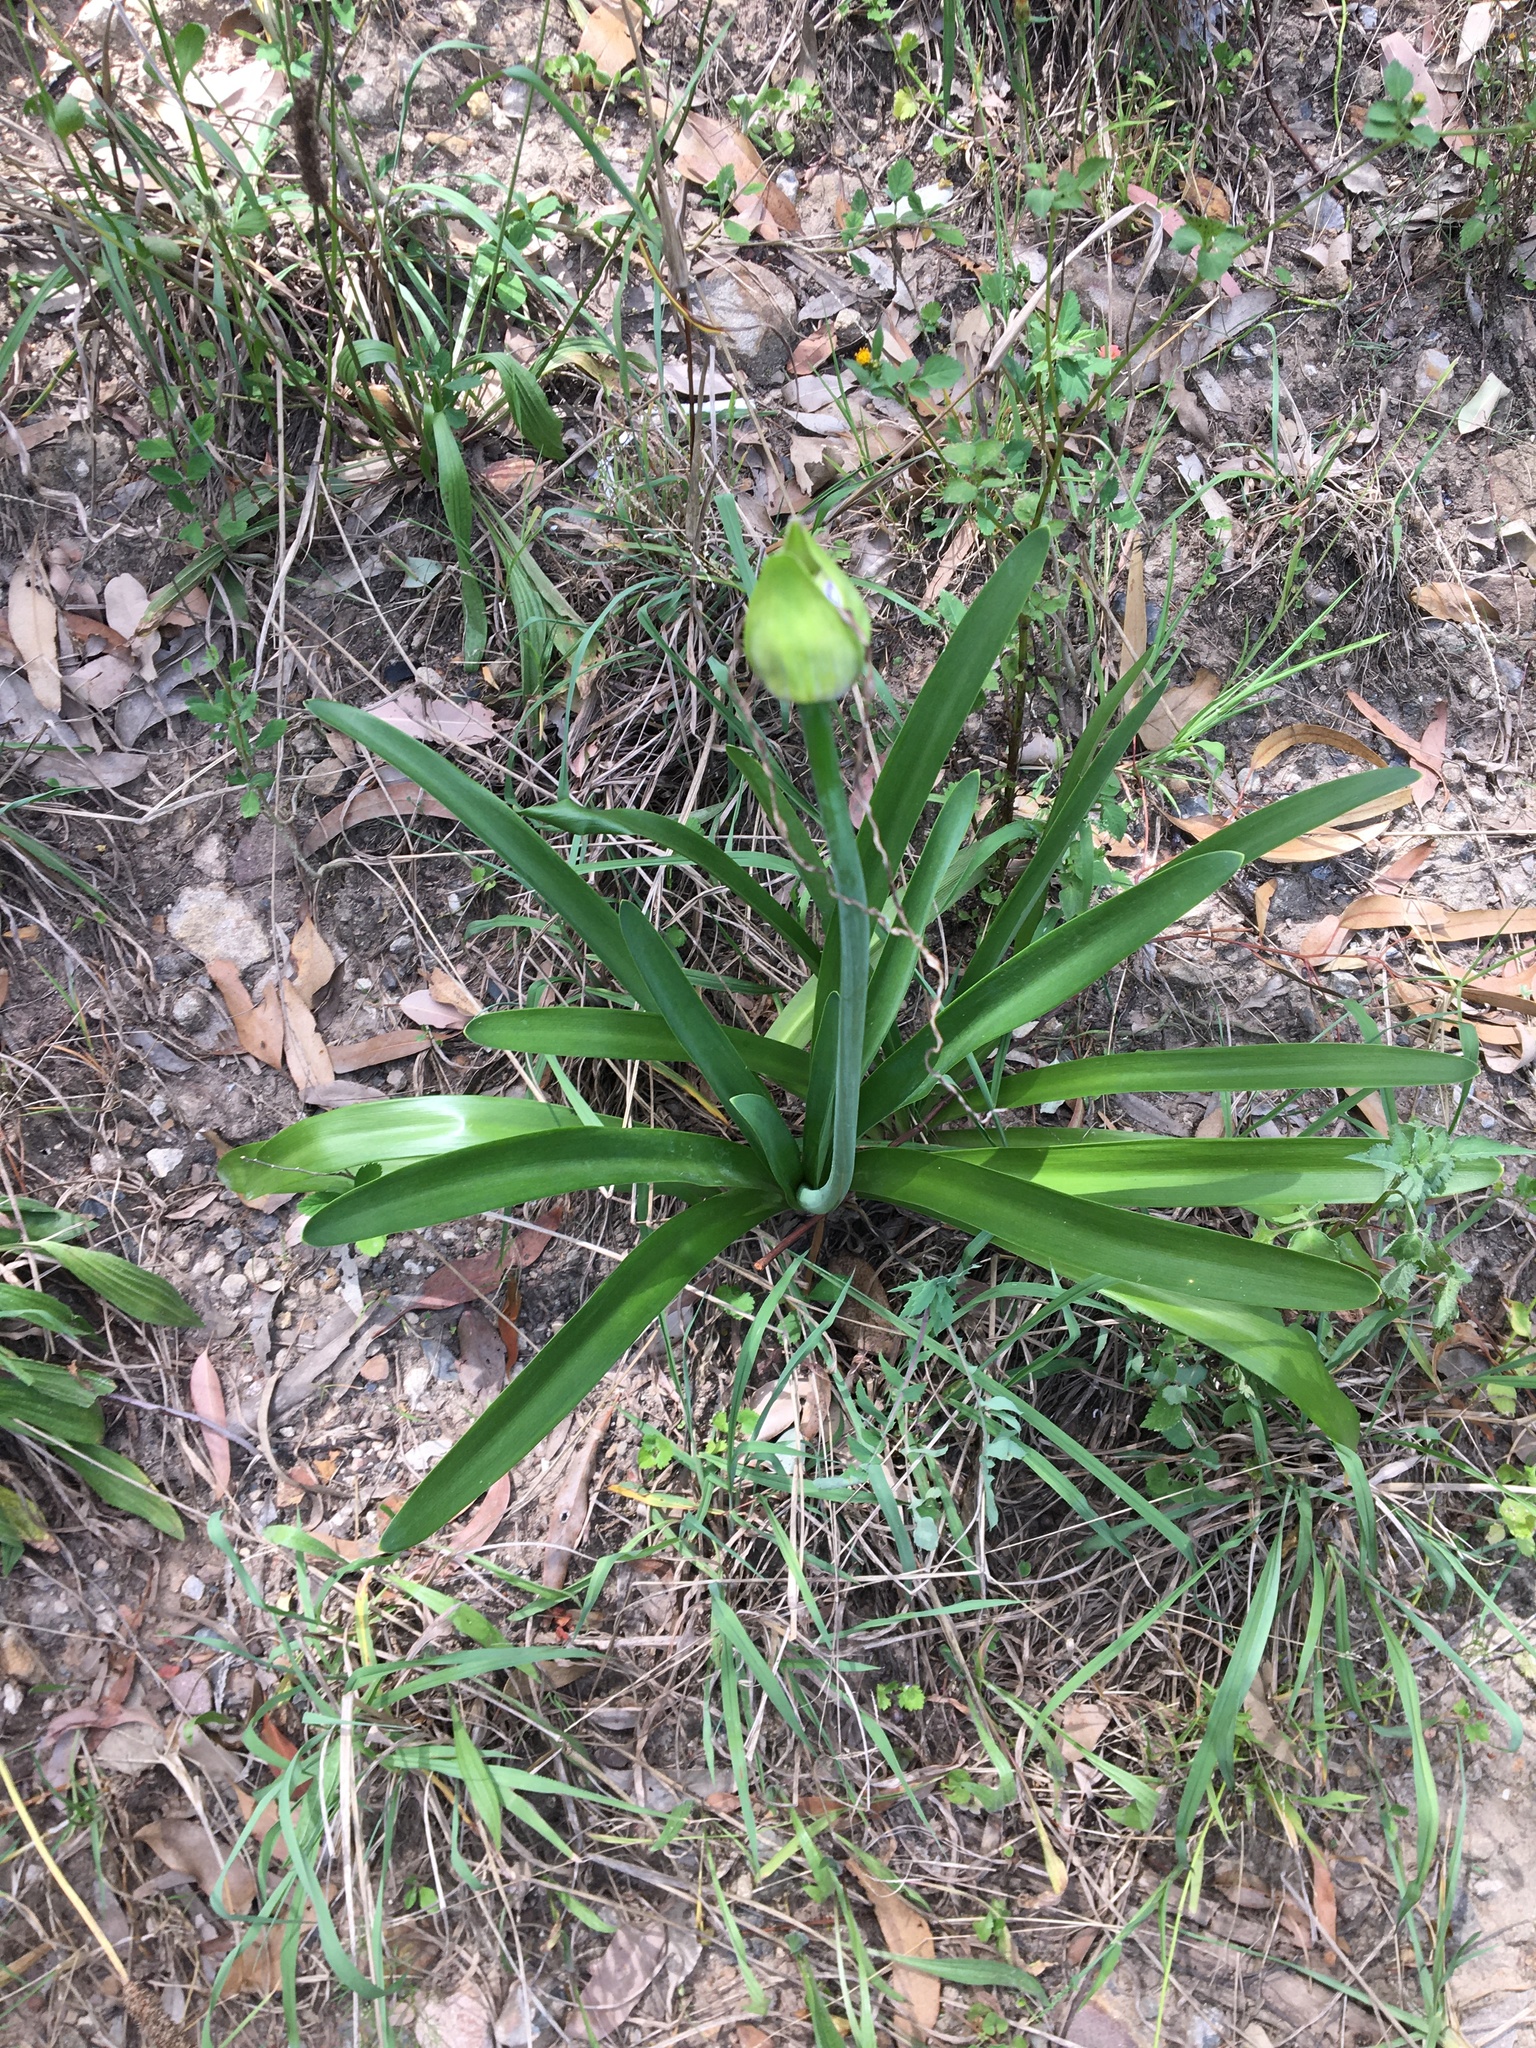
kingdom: Plantae
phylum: Tracheophyta
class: Liliopsida
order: Asparagales
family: Amaryllidaceae
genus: Agapanthus
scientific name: Agapanthus praecox
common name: African-lily
